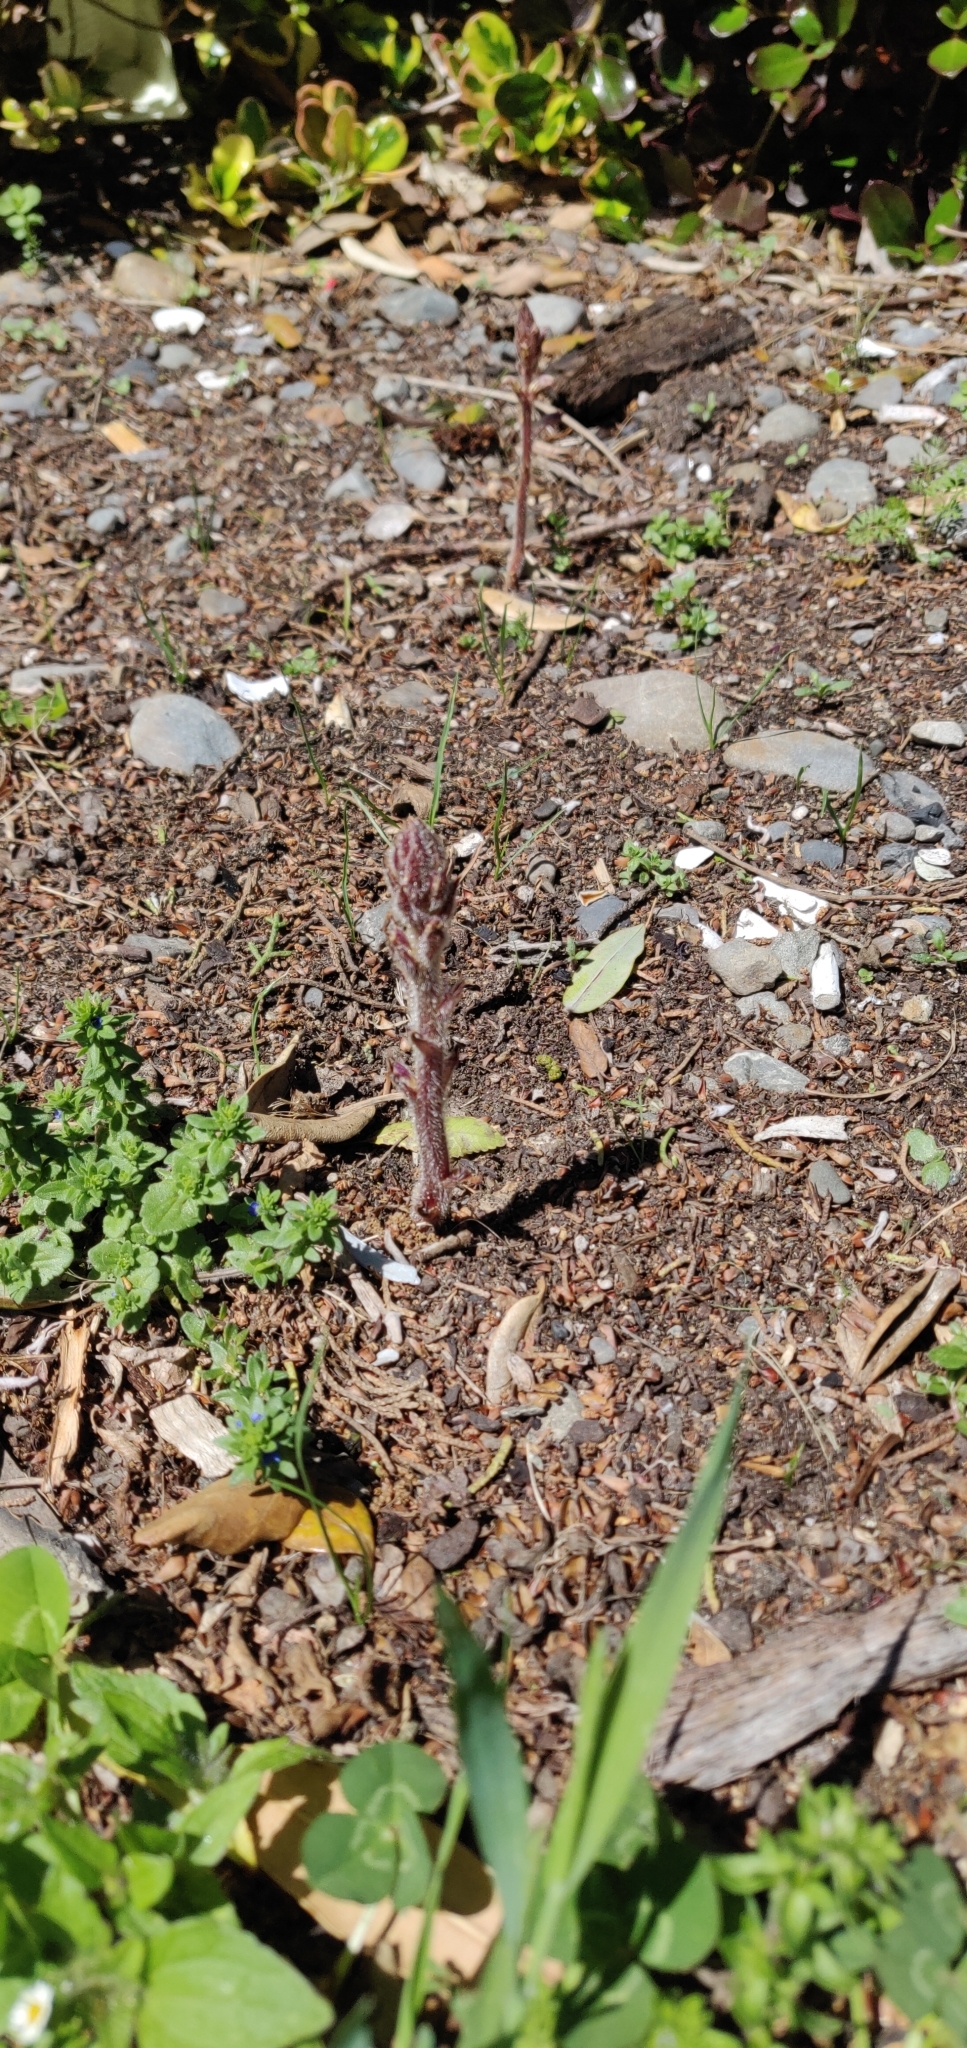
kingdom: Plantae
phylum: Tracheophyta
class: Magnoliopsida
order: Lamiales
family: Orobanchaceae
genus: Orobanche
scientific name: Orobanche minor
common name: Common broomrape
